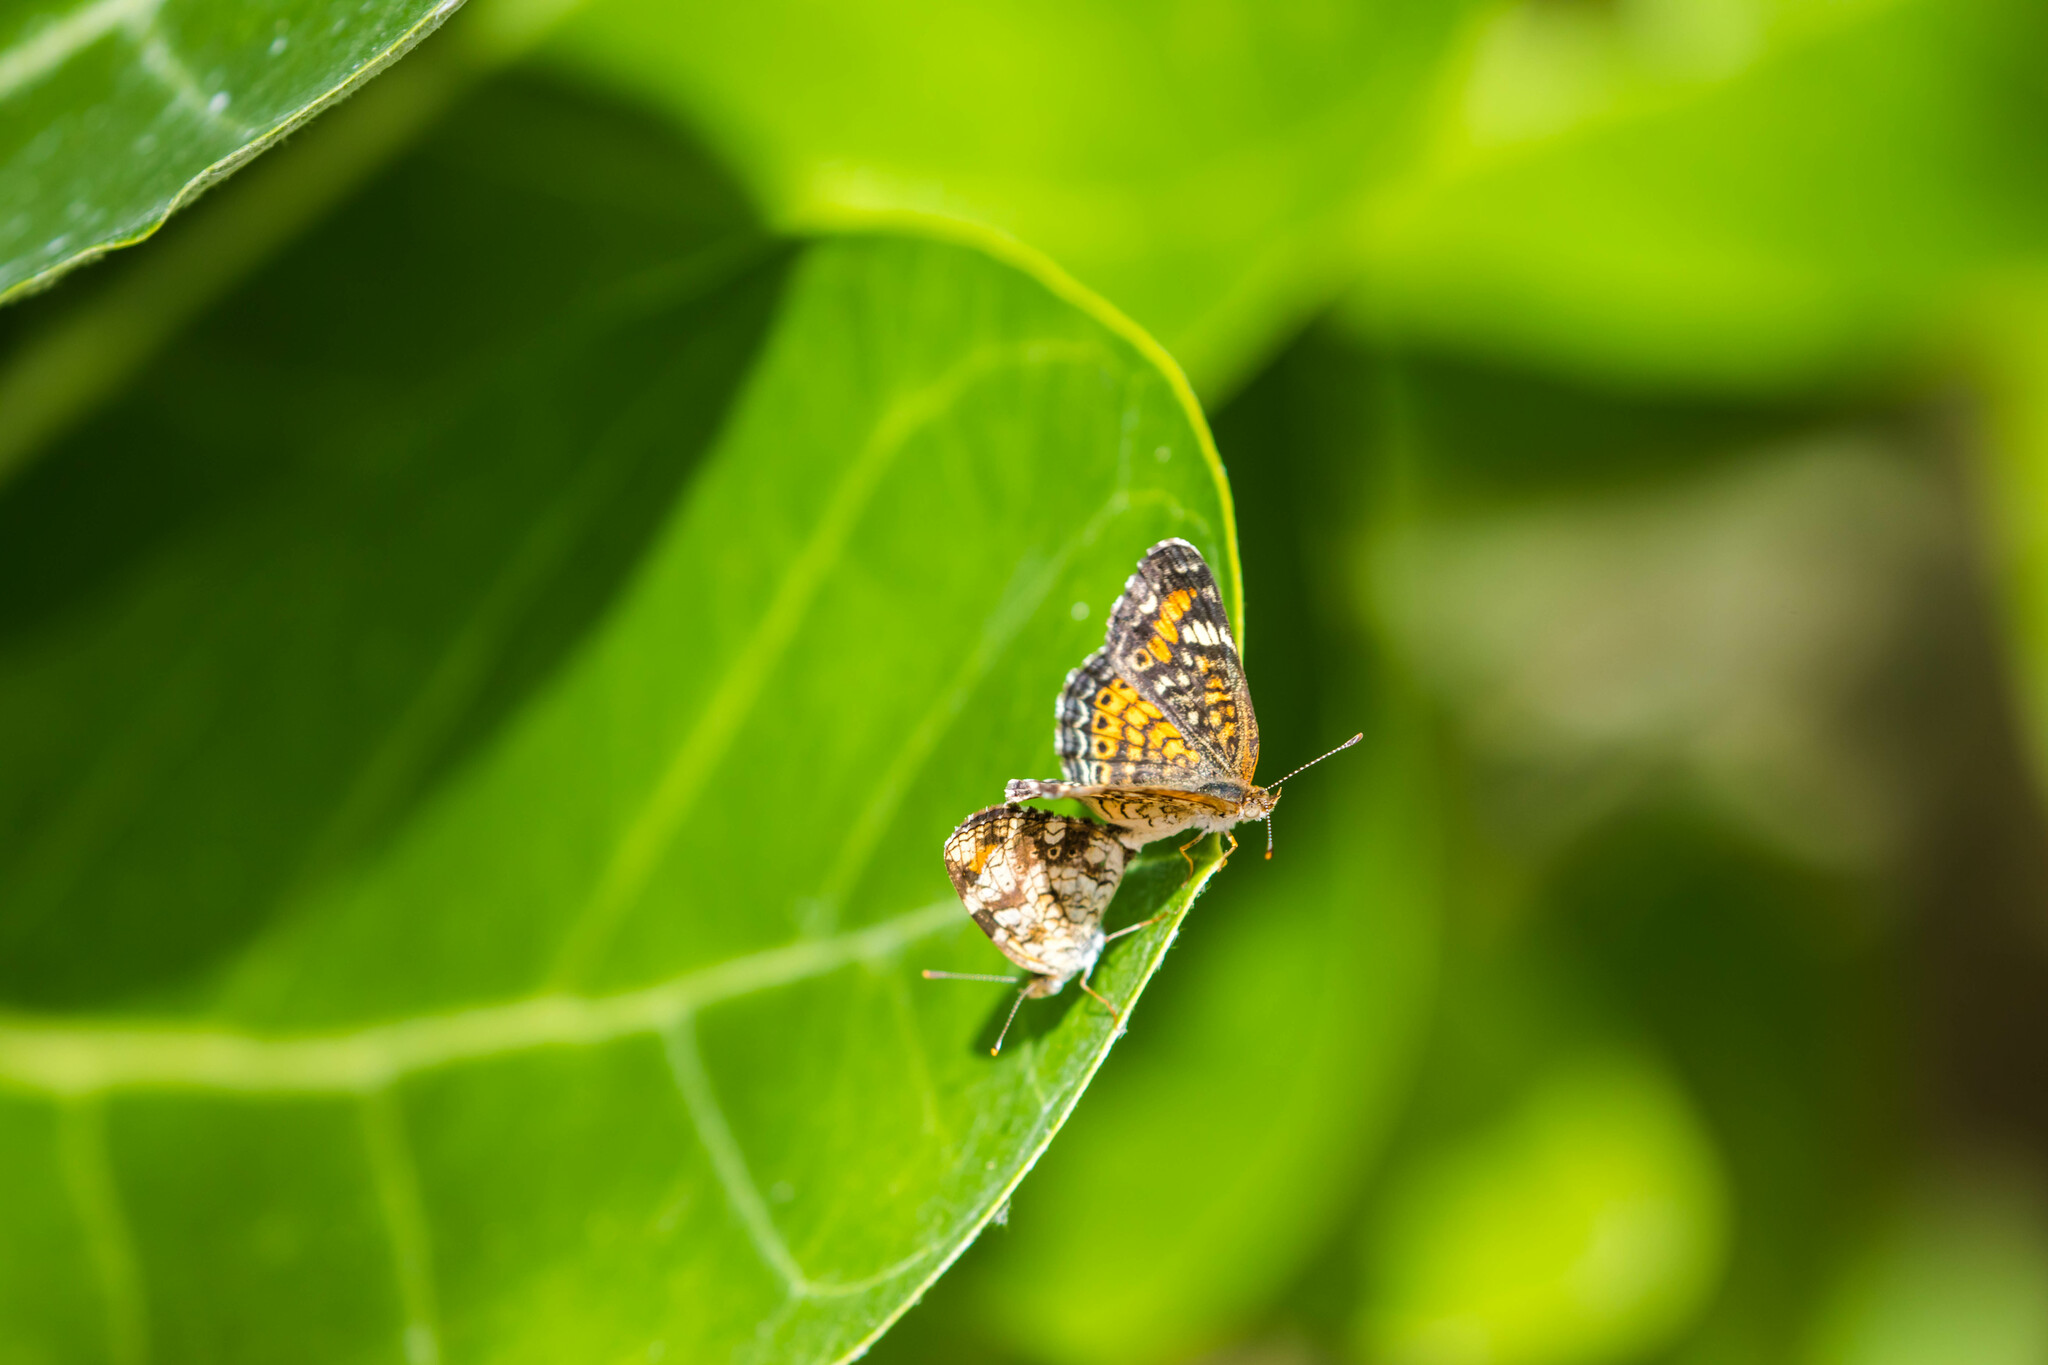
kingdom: Animalia
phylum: Arthropoda
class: Insecta
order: Lepidoptera
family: Nymphalidae
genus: Phyciodes
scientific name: Phyciodes phaon
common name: Phaon crescent
